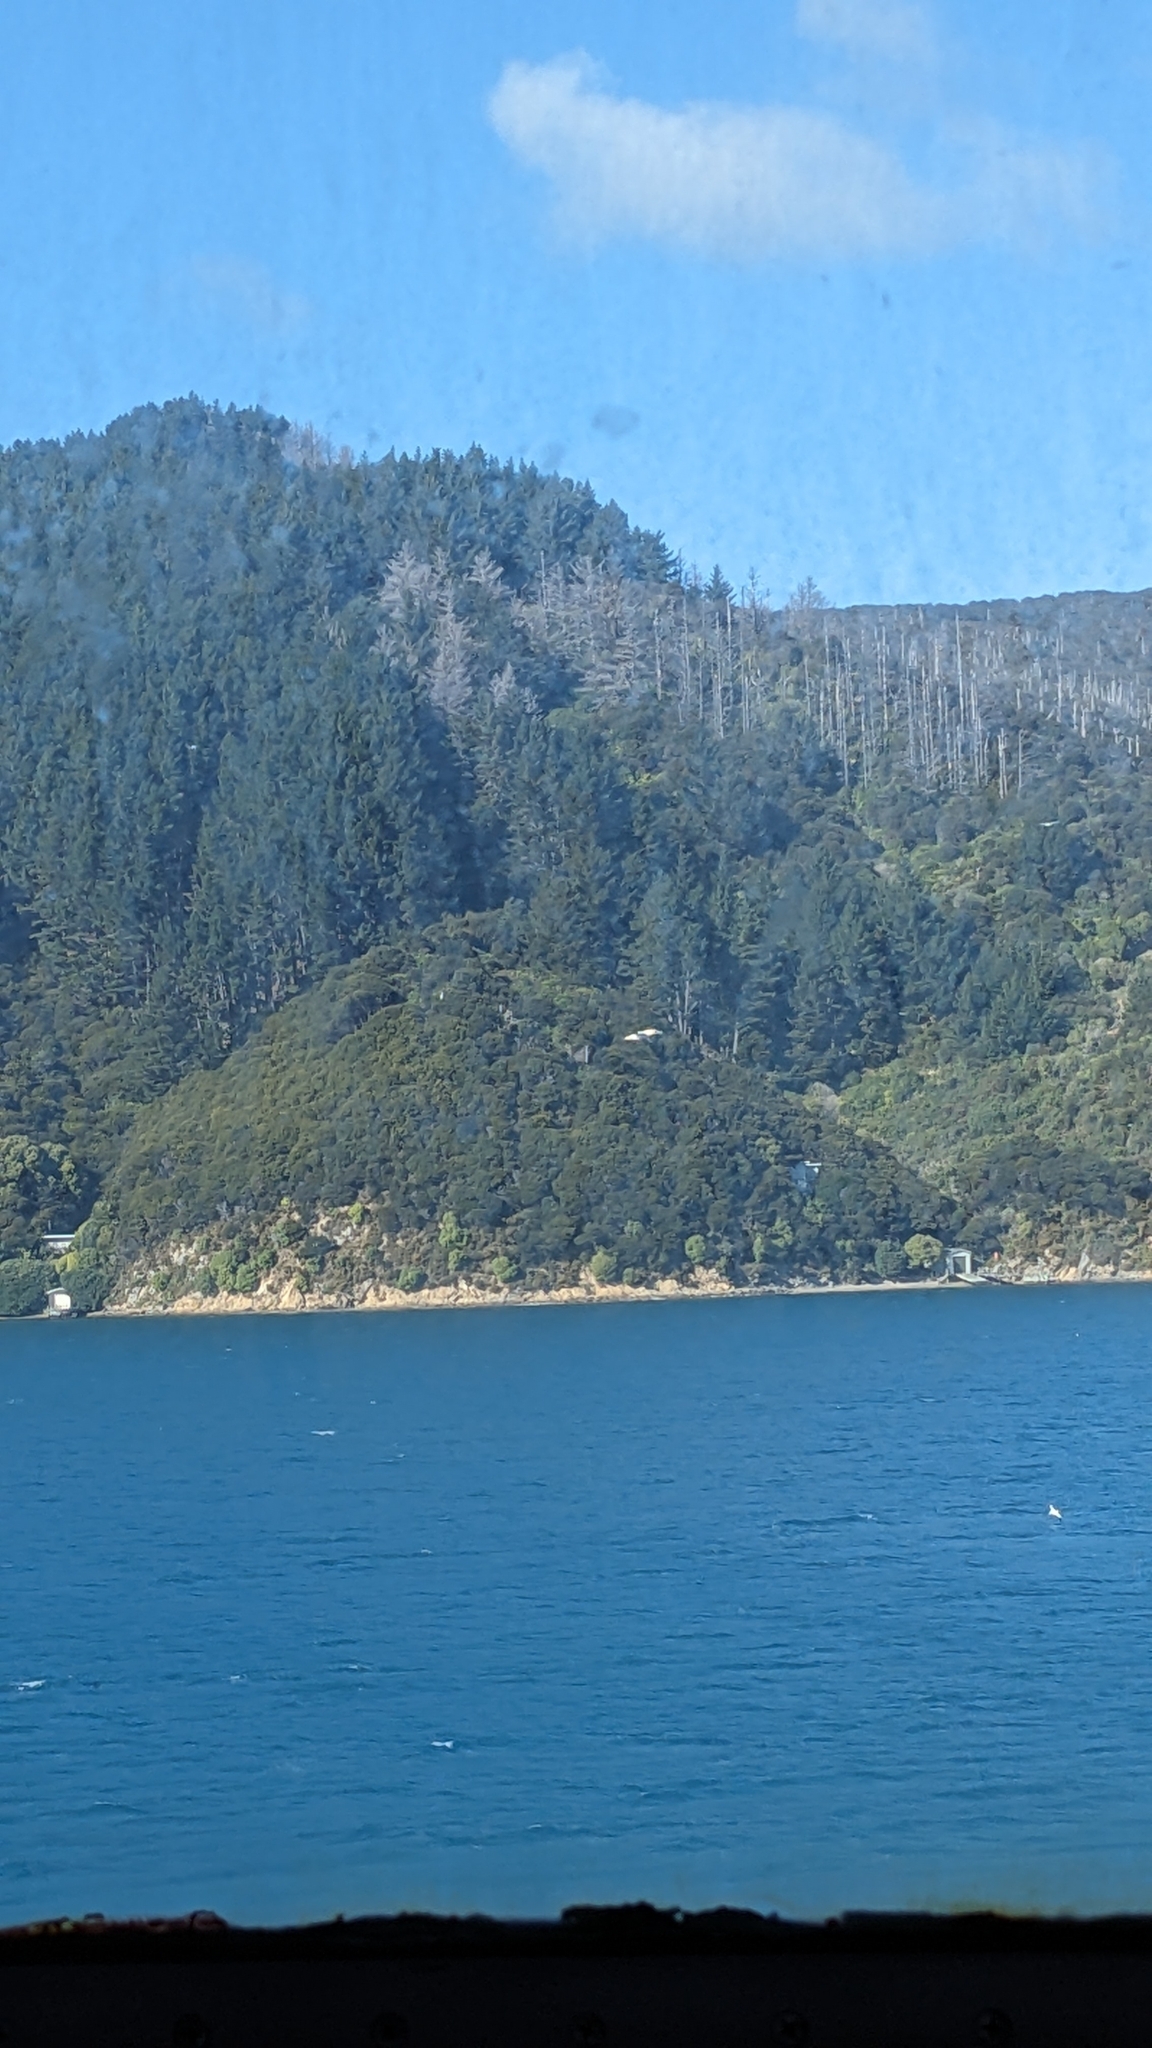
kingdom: Animalia
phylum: Chordata
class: Aves
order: Suliformes
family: Sulidae
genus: Morus
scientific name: Morus serrator
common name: Australasian gannet
